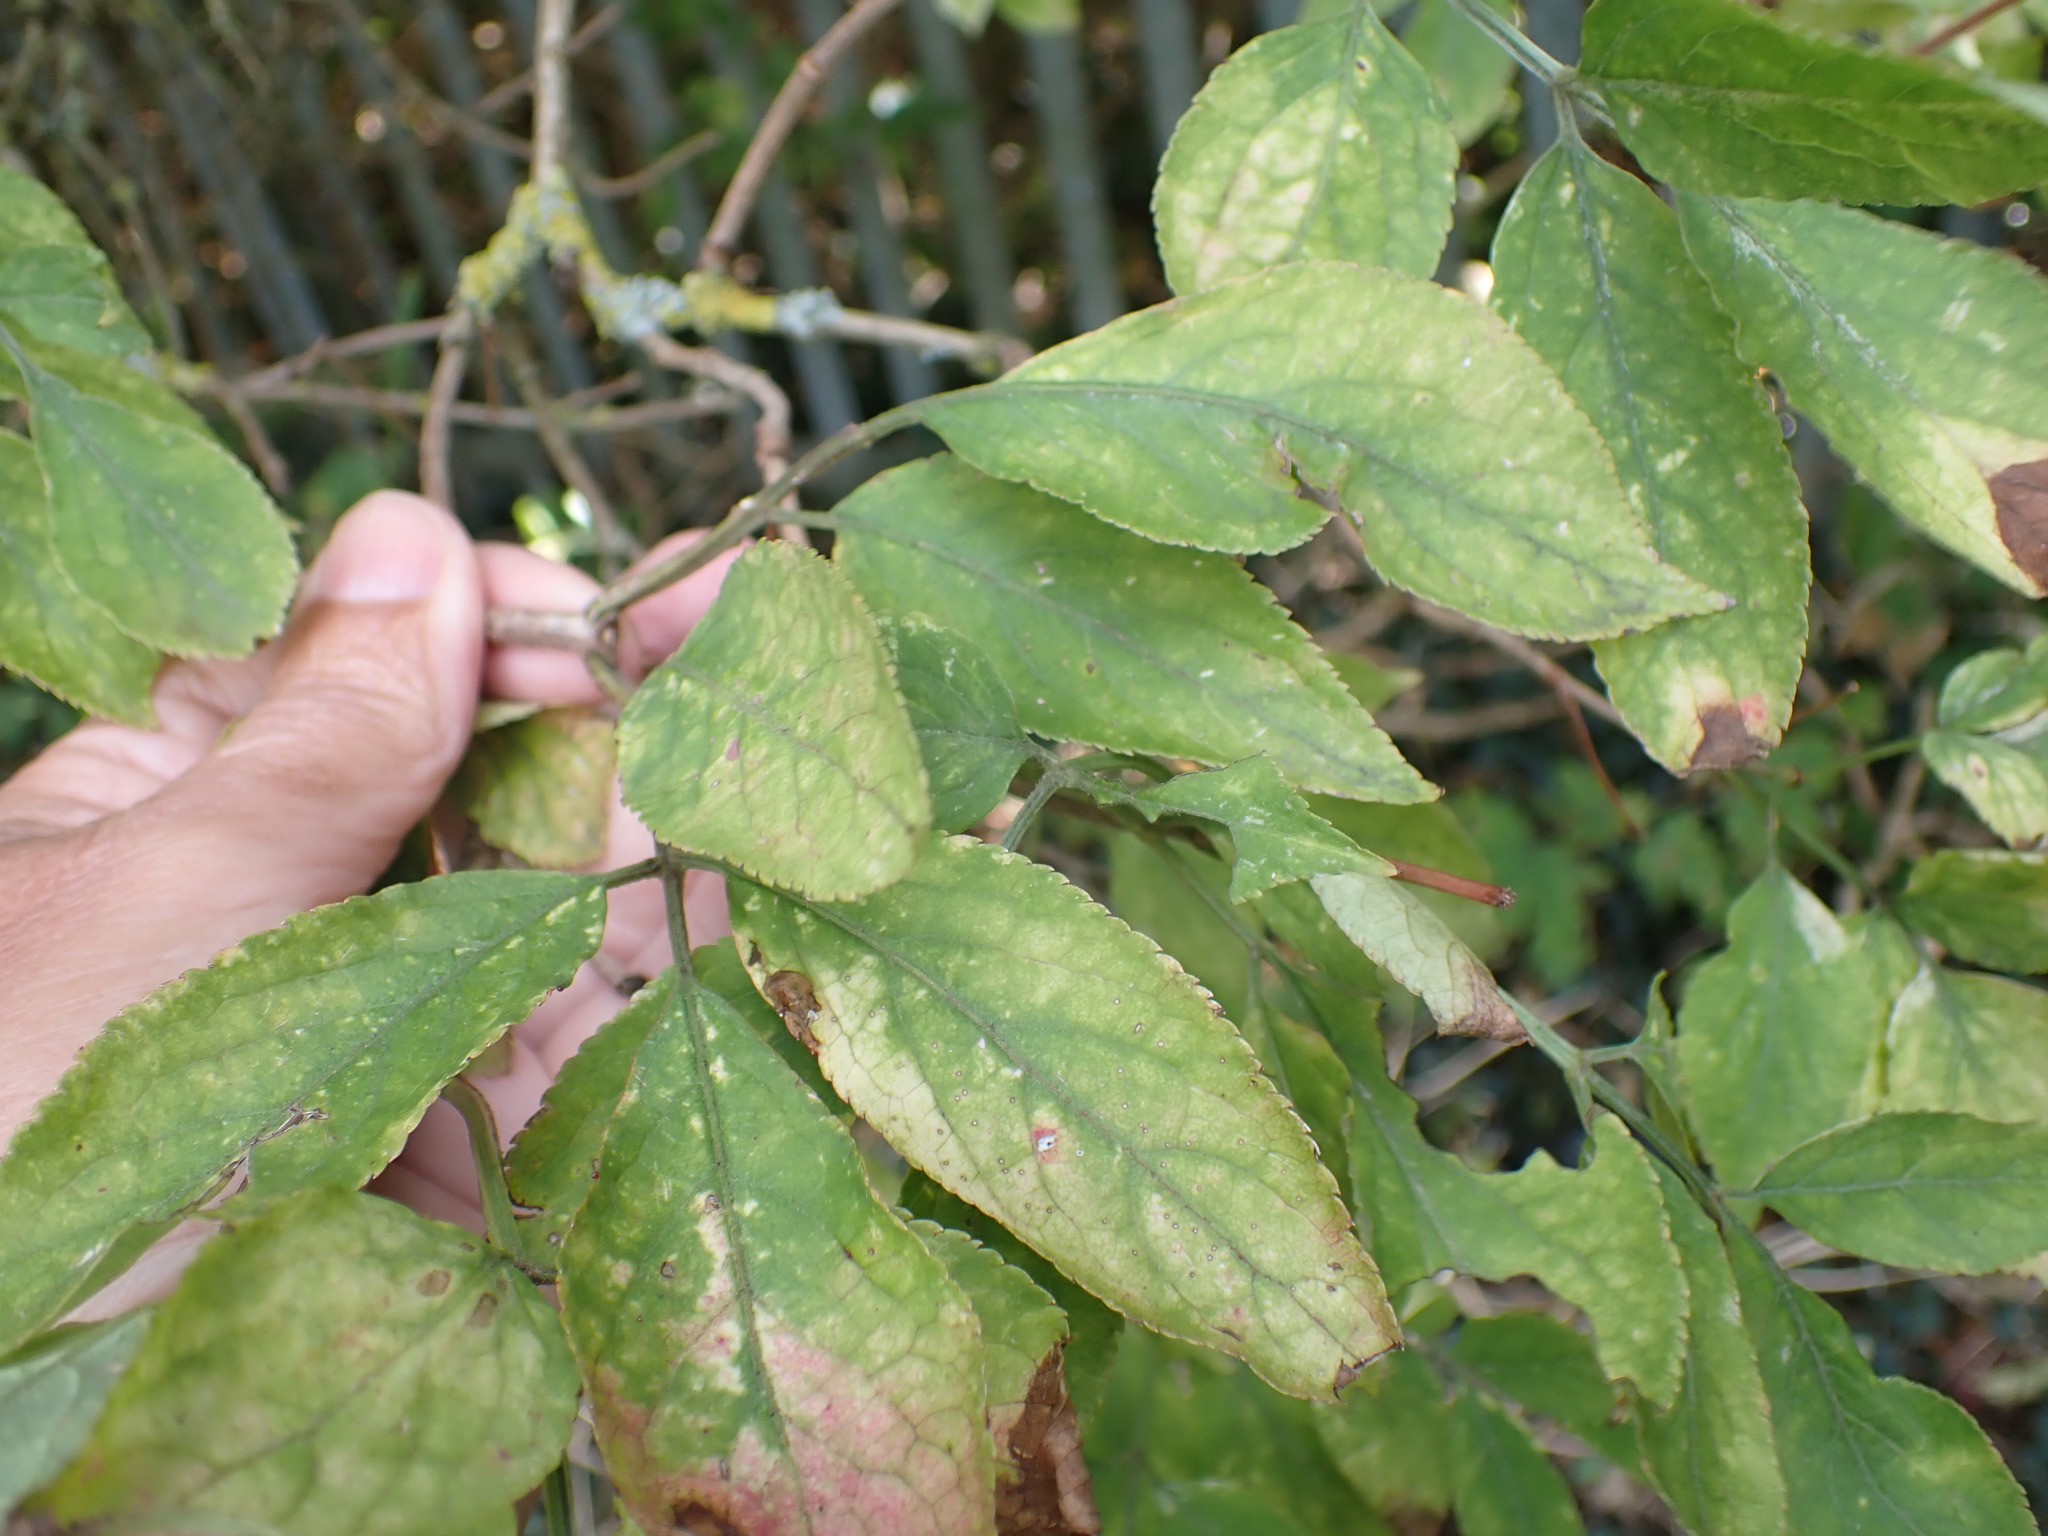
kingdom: Plantae
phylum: Tracheophyta
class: Magnoliopsida
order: Dipsacales
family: Viburnaceae
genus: Sambucus
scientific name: Sambucus nigra
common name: Elder
